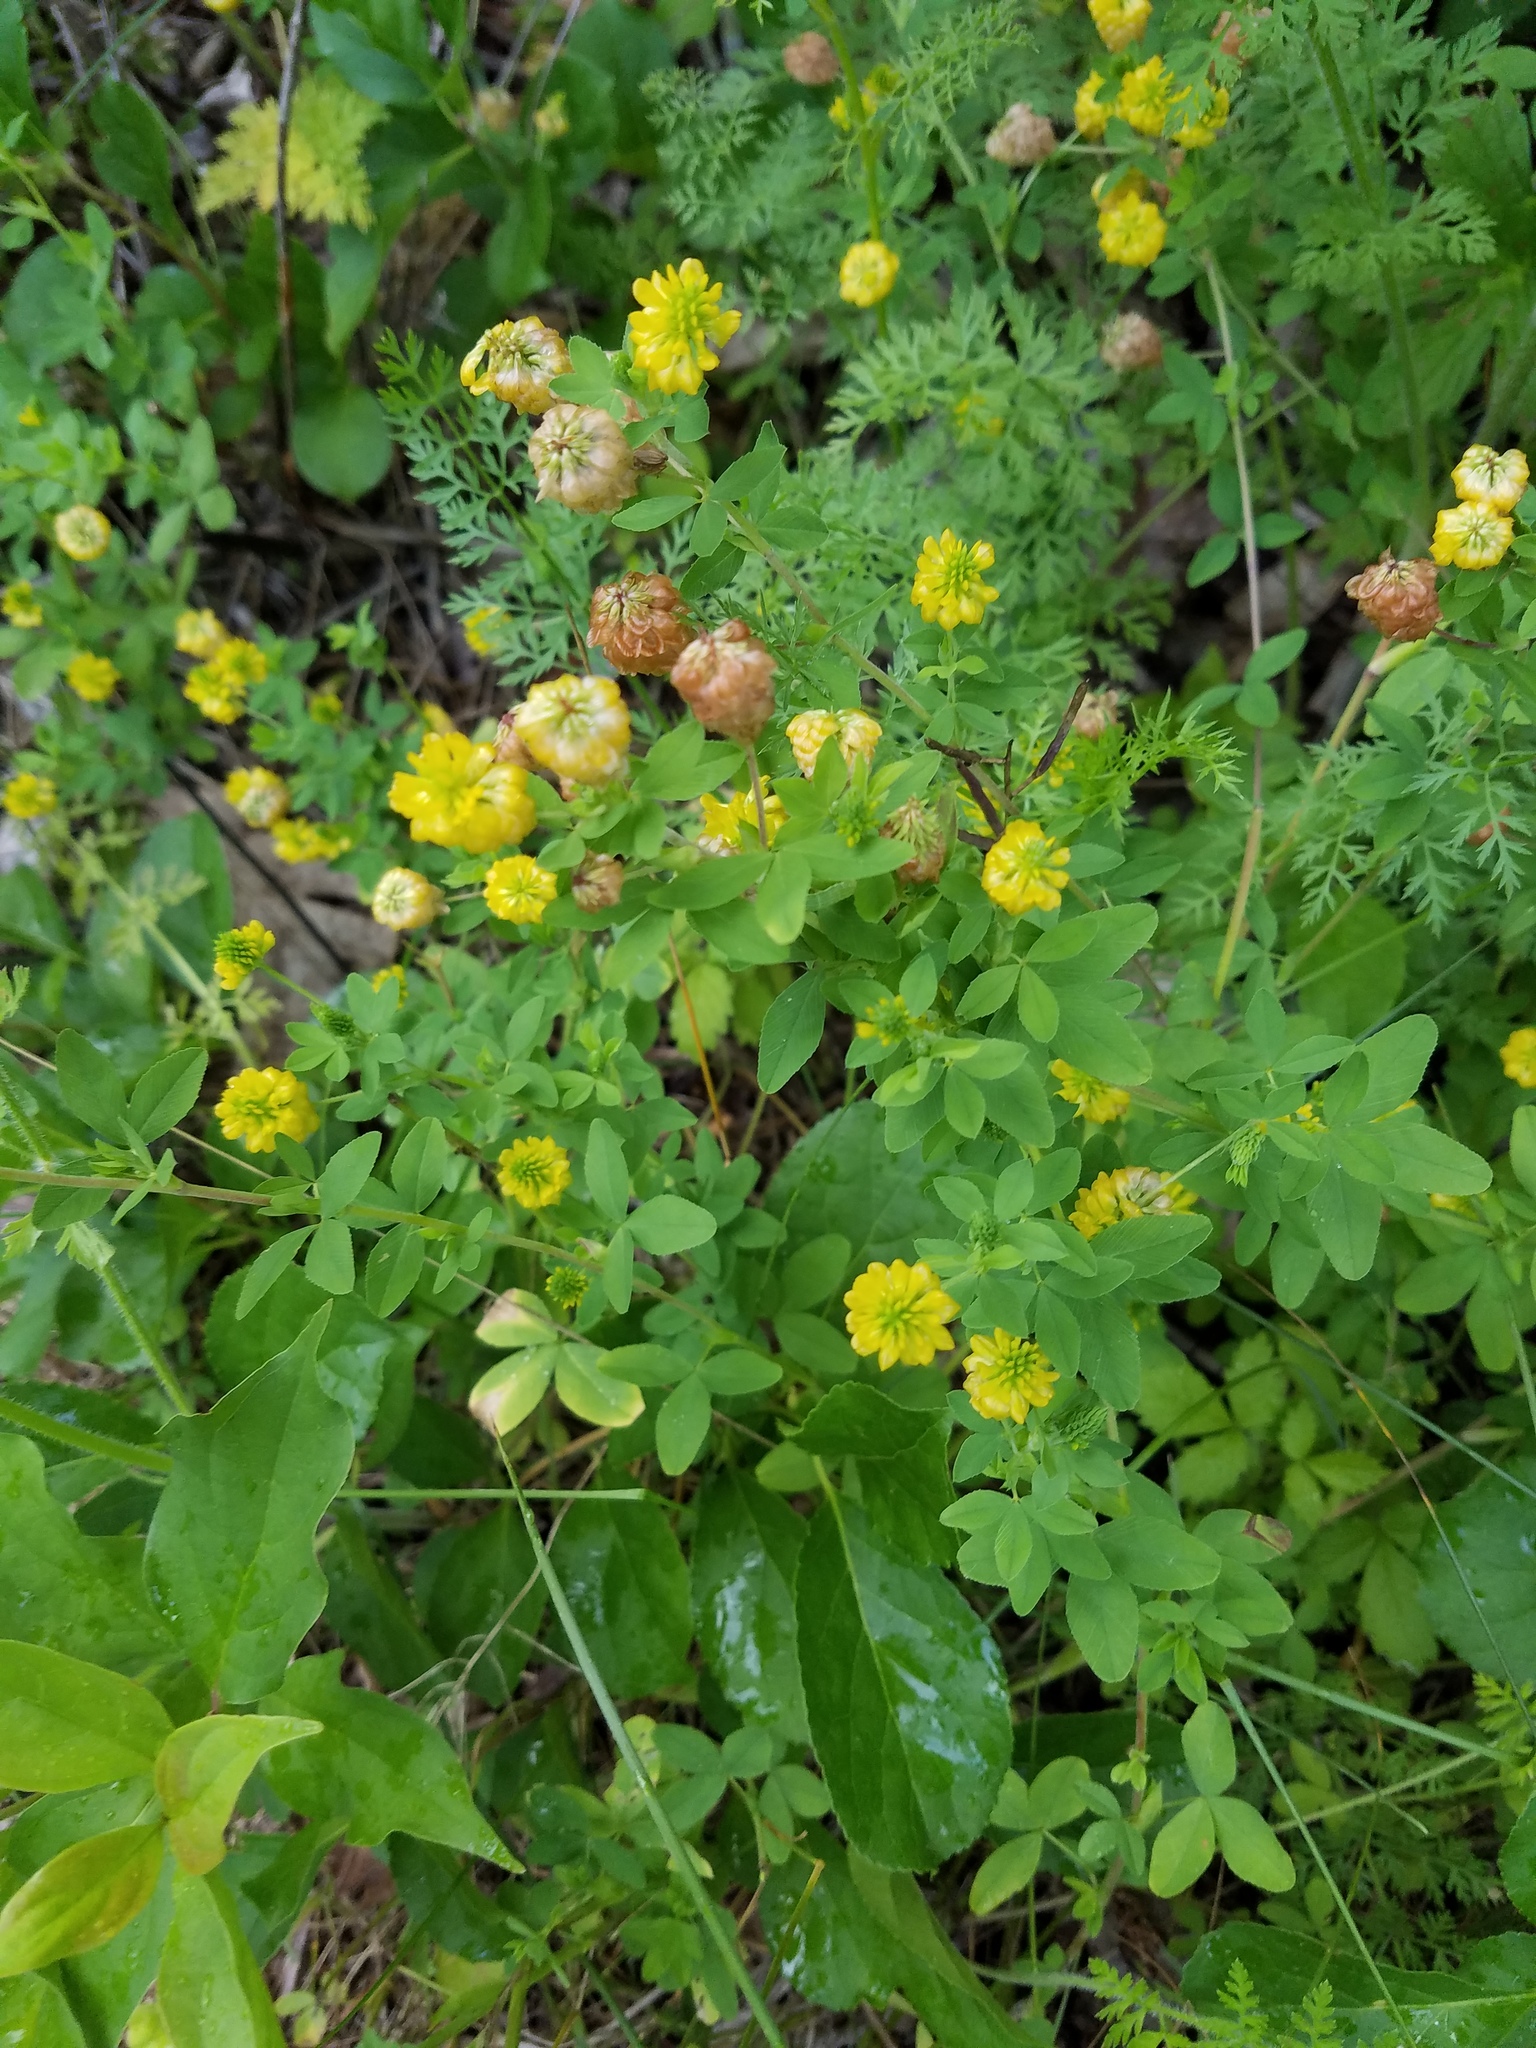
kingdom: Plantae
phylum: Tracheophyta
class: Magnoliopsida
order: Fabales
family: Fabaceae
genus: Trifolium
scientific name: Trifolium aureum
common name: Golden clover
